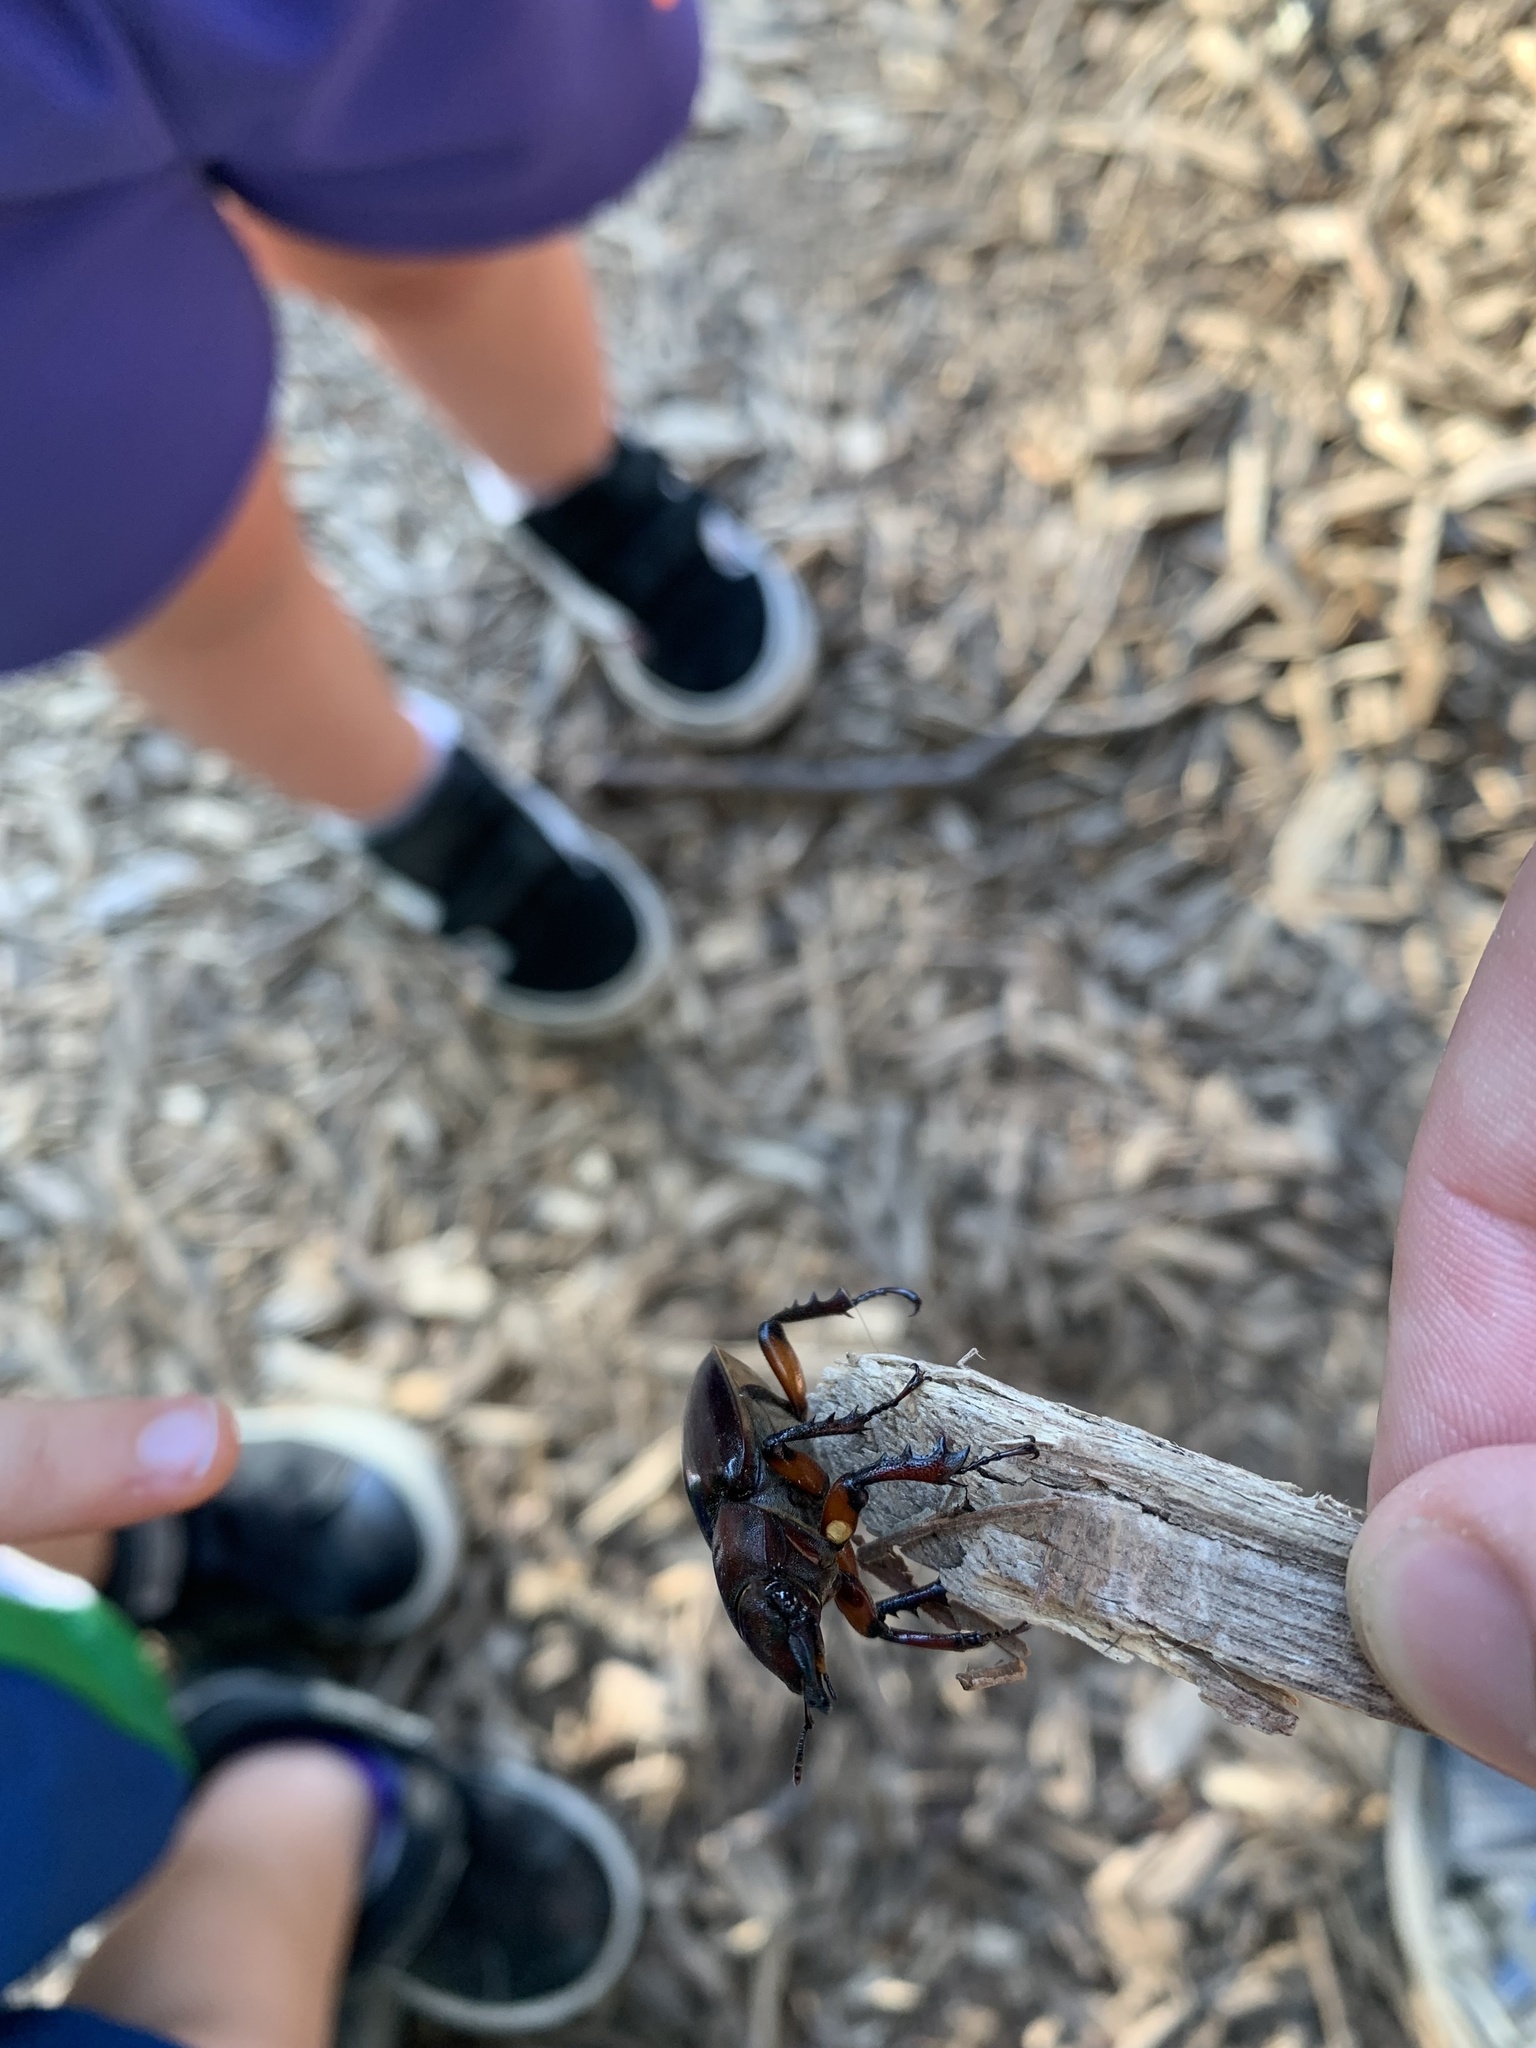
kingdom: Animalia
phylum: Arthropoda
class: Insecta
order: Coleoptera
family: Lucanidae
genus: Lucanus
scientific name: Lucanus capreolus
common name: Stag beetle
